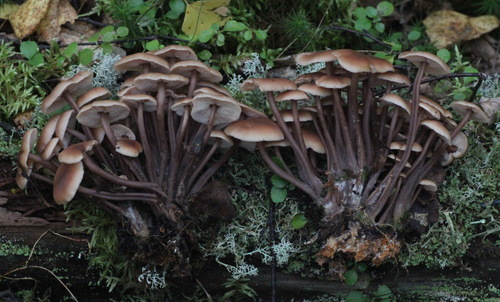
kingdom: Fungi
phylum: Basidiomycota
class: Agaricomycetes
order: Agaricales
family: Omphalotaceae
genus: Collybiopsis
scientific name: Collybiopsis
